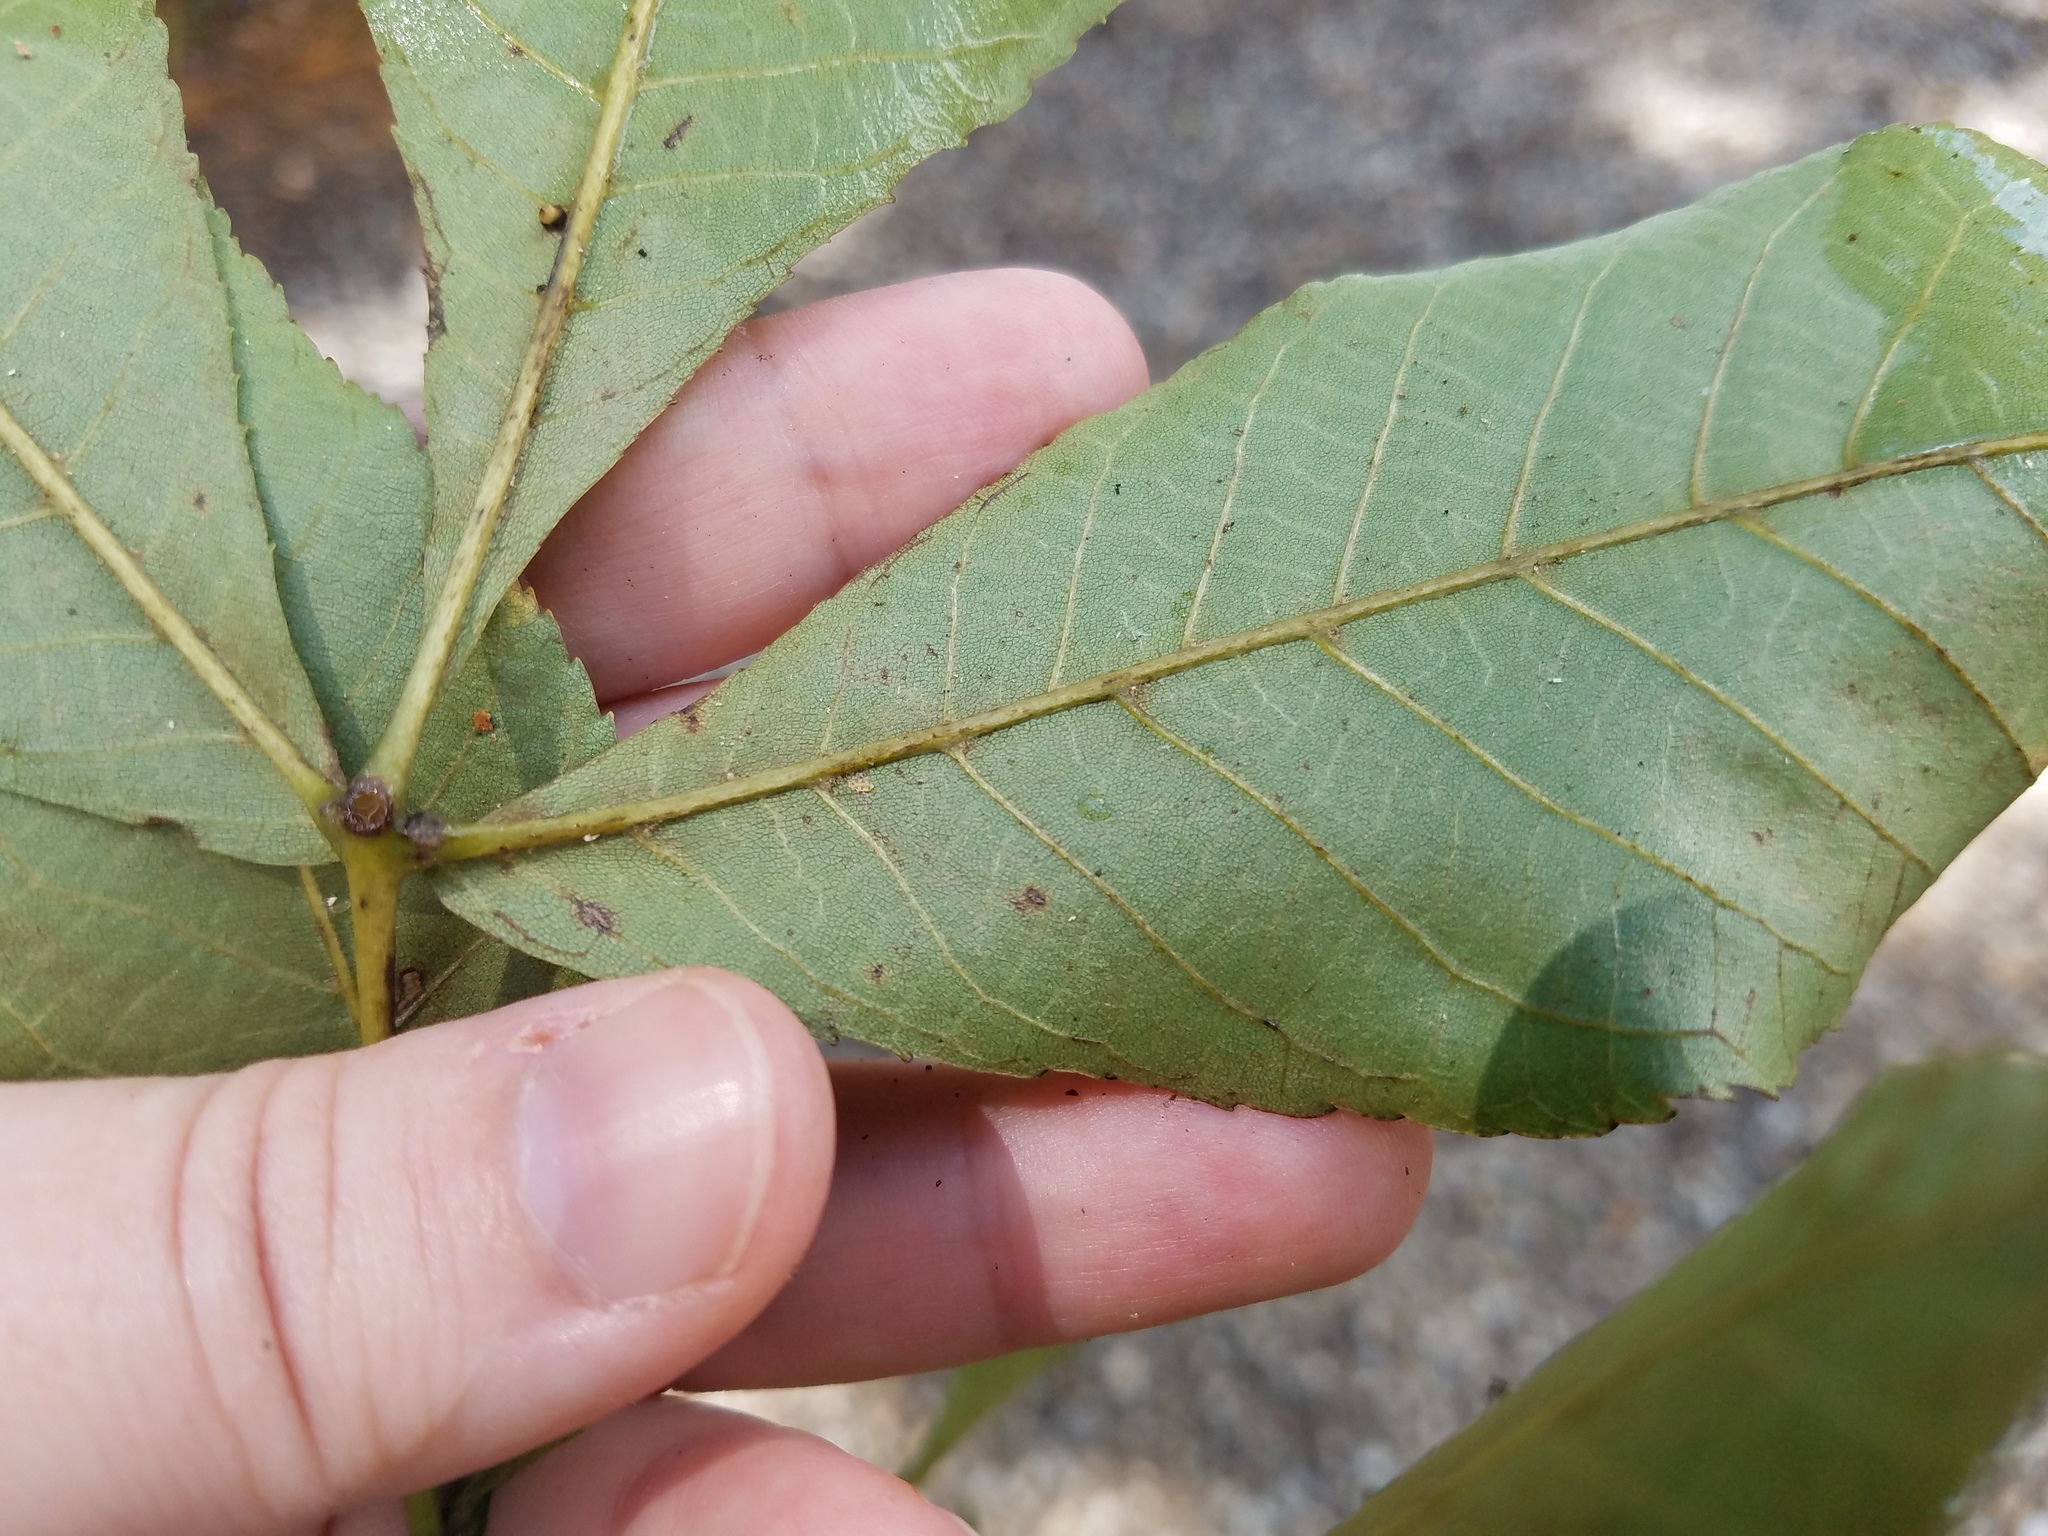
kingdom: Plantae
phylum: Tracheophyta
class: Magnoliopsida
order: Fagales
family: Juglandaceae
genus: Carya
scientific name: Carya glabra
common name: Pignut hickory
